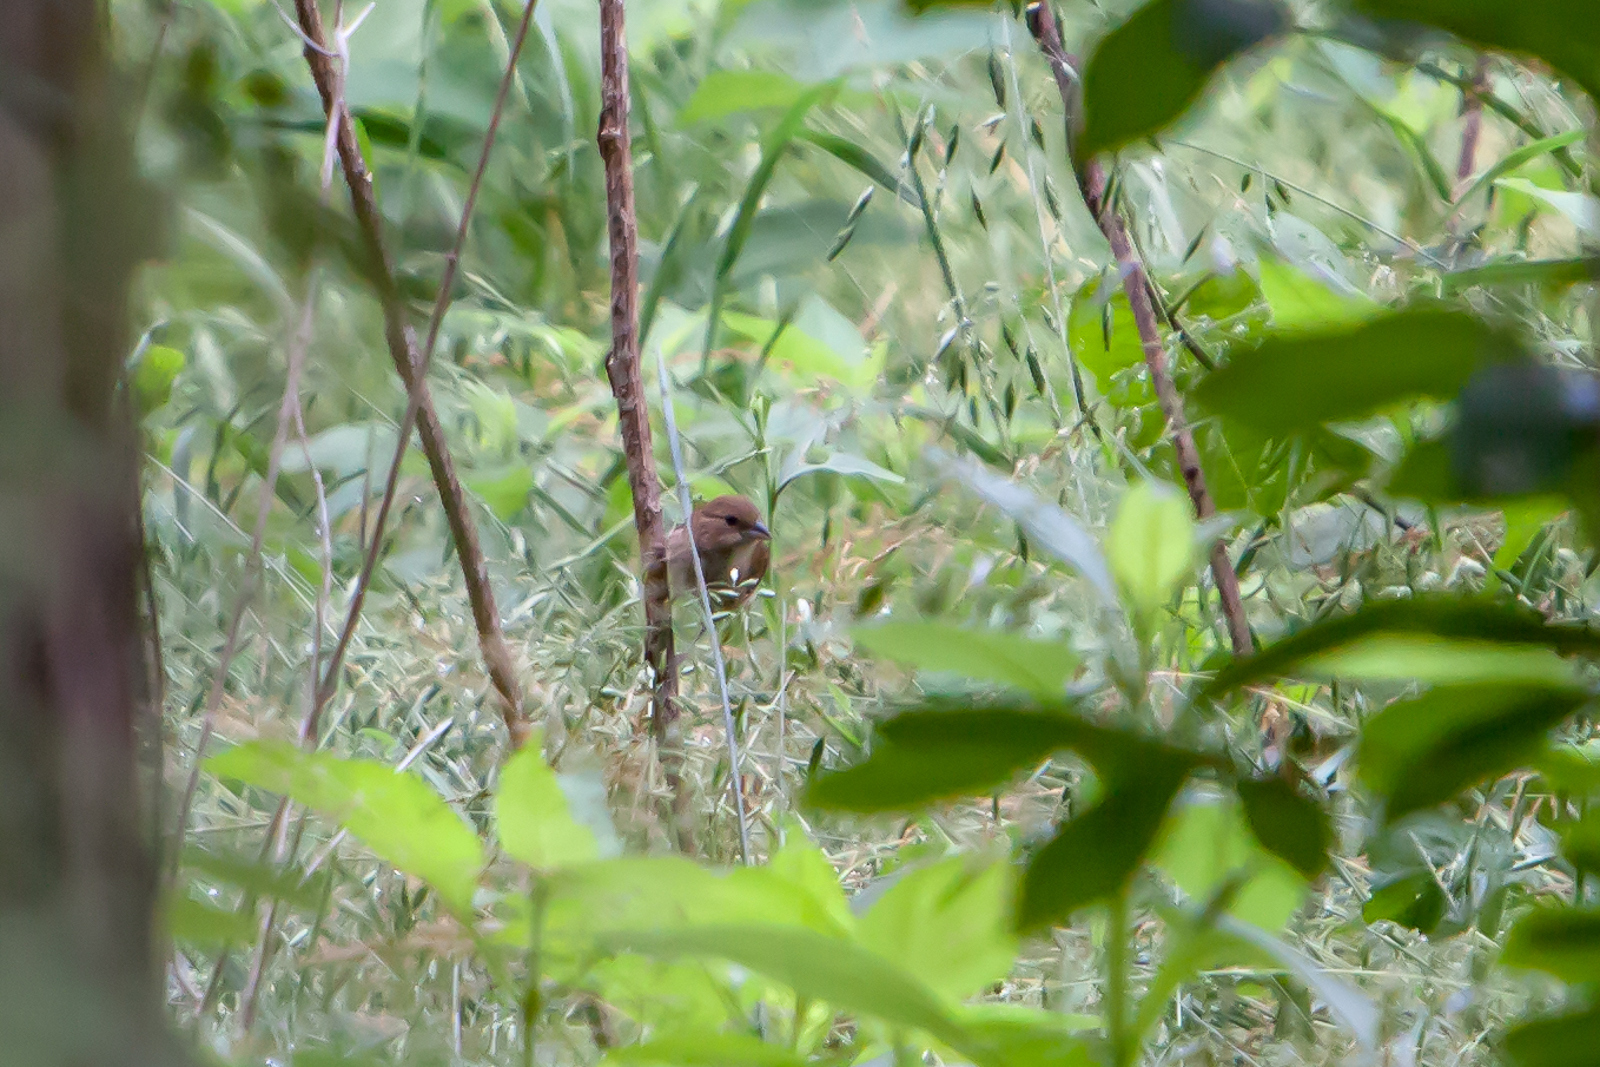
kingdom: Animalia
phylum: Chordata
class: Aves
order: Passeriformes
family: Cardinalidae
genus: Passerina
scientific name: Passerina cyanea
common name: Indigo bunting
